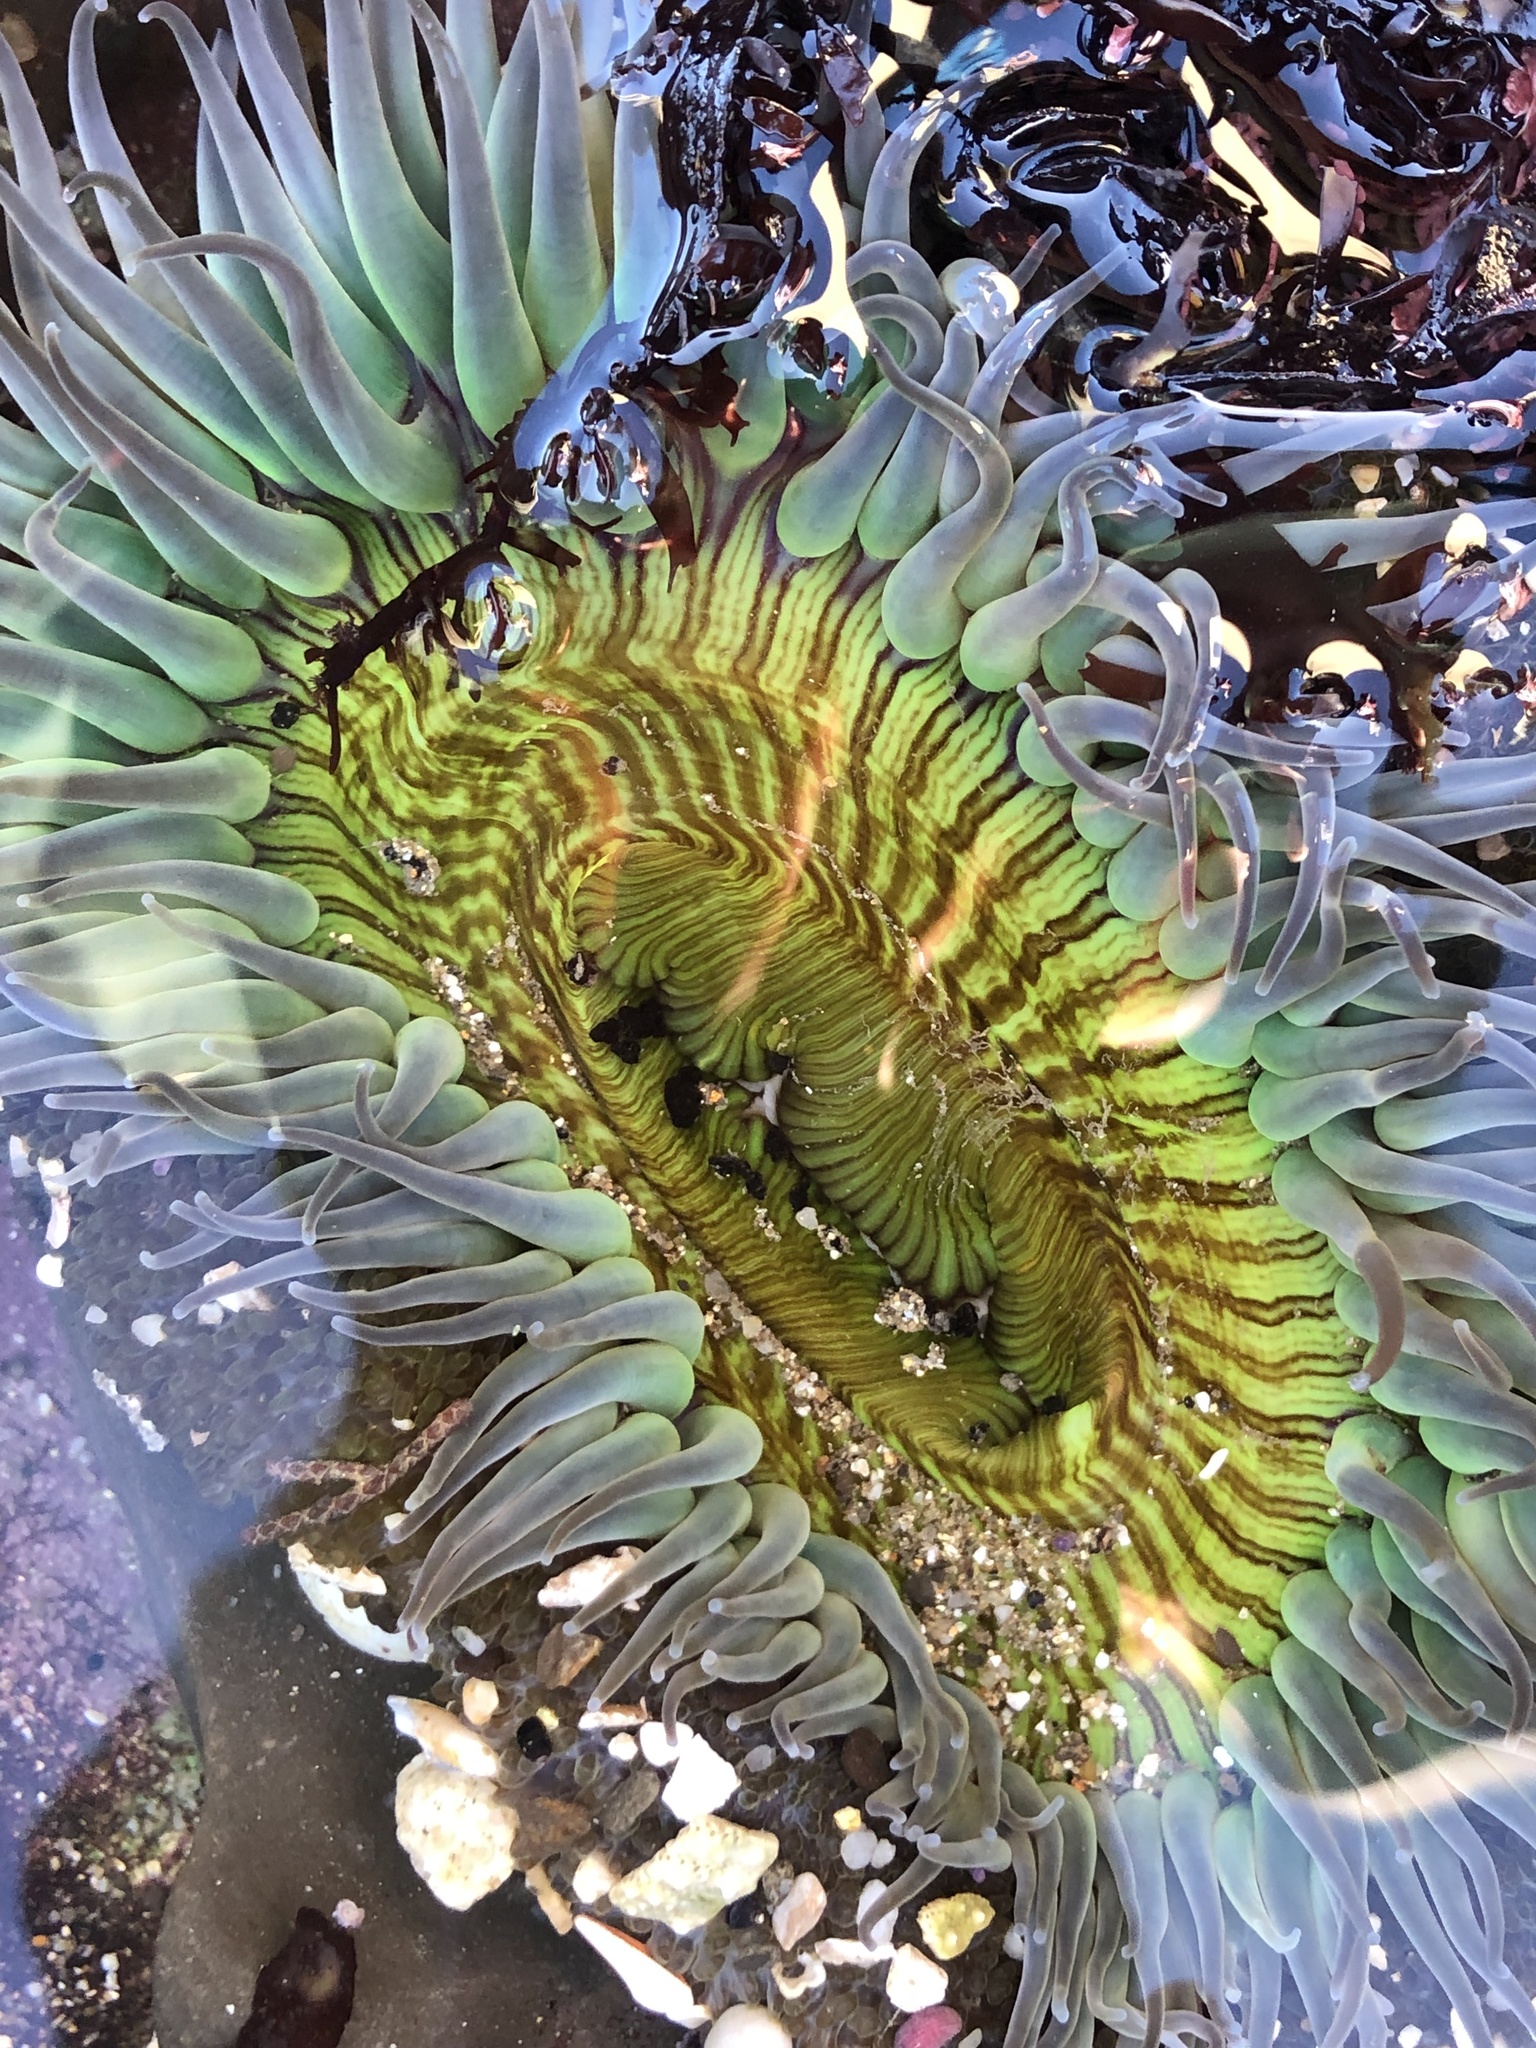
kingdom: Animalia
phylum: Cnidaria
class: Anthozoa
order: Actiniaria
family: Actiniidae
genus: Anthopleura
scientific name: Anthopleura sola
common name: Sun anemone
